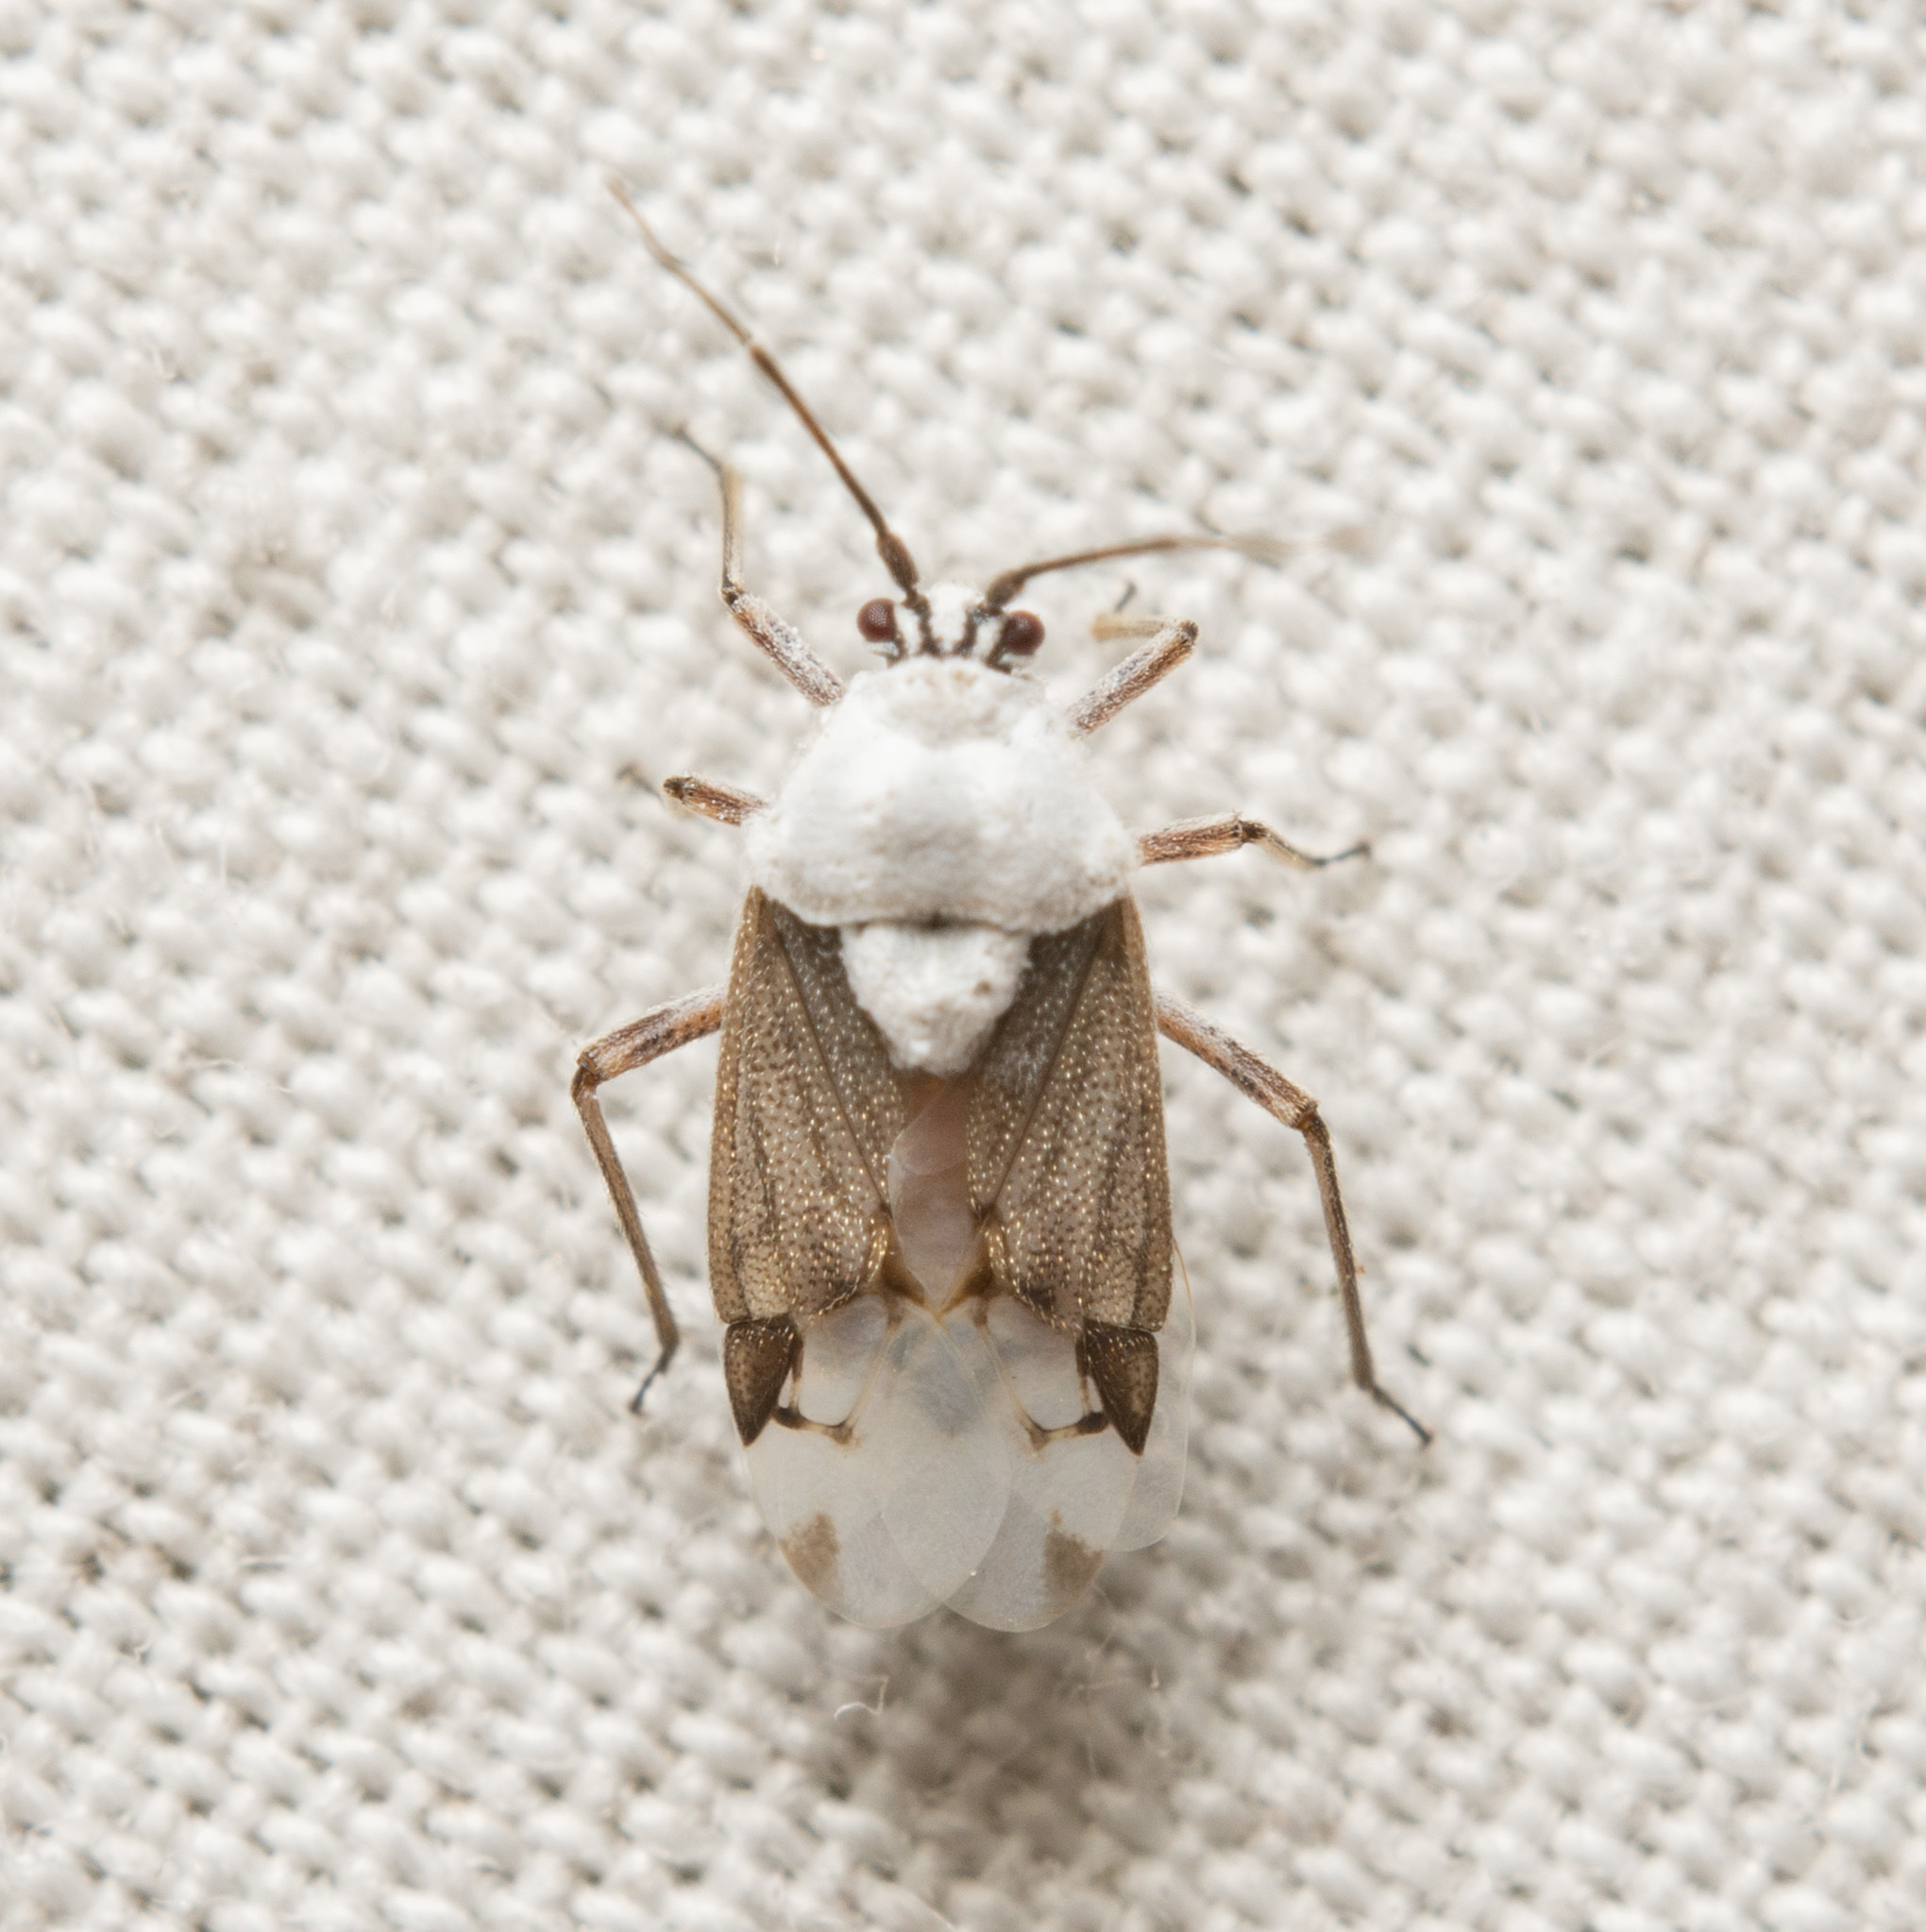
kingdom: Animalia
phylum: Arthropoda
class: Insecta
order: Hemiptera
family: Miridae
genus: Clivinema
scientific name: Clivinema
